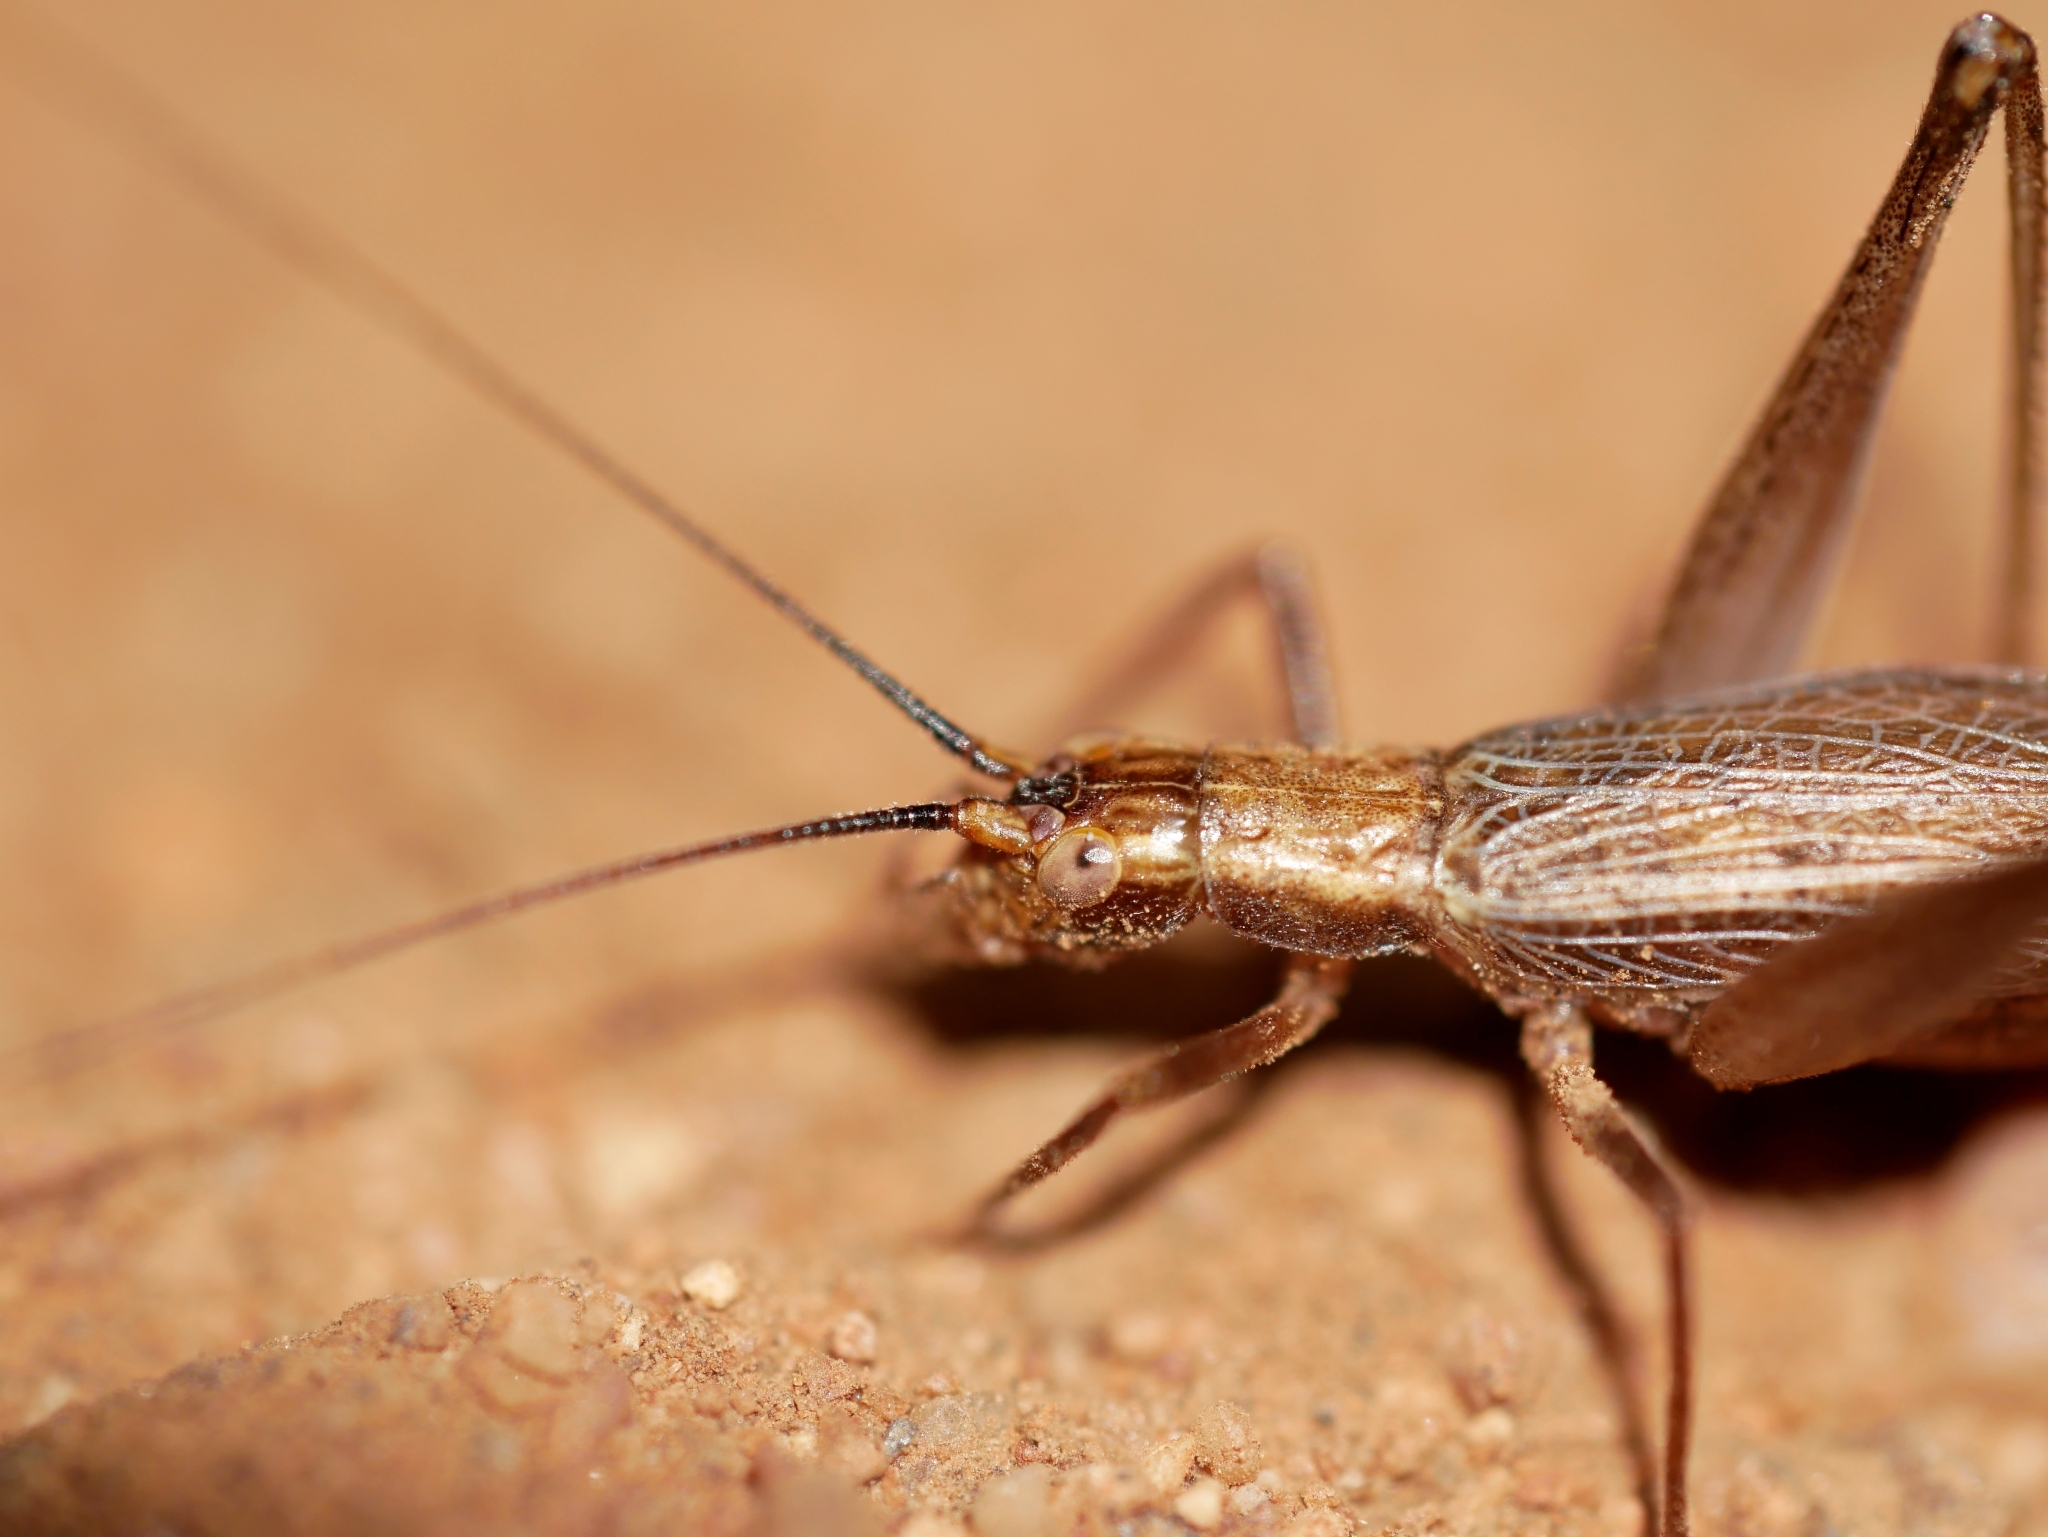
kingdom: Animalia
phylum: Arthropoda
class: Insecta
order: Orthoptera
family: Gryllidae
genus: Oecanthus
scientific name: Oecanthus californicus
